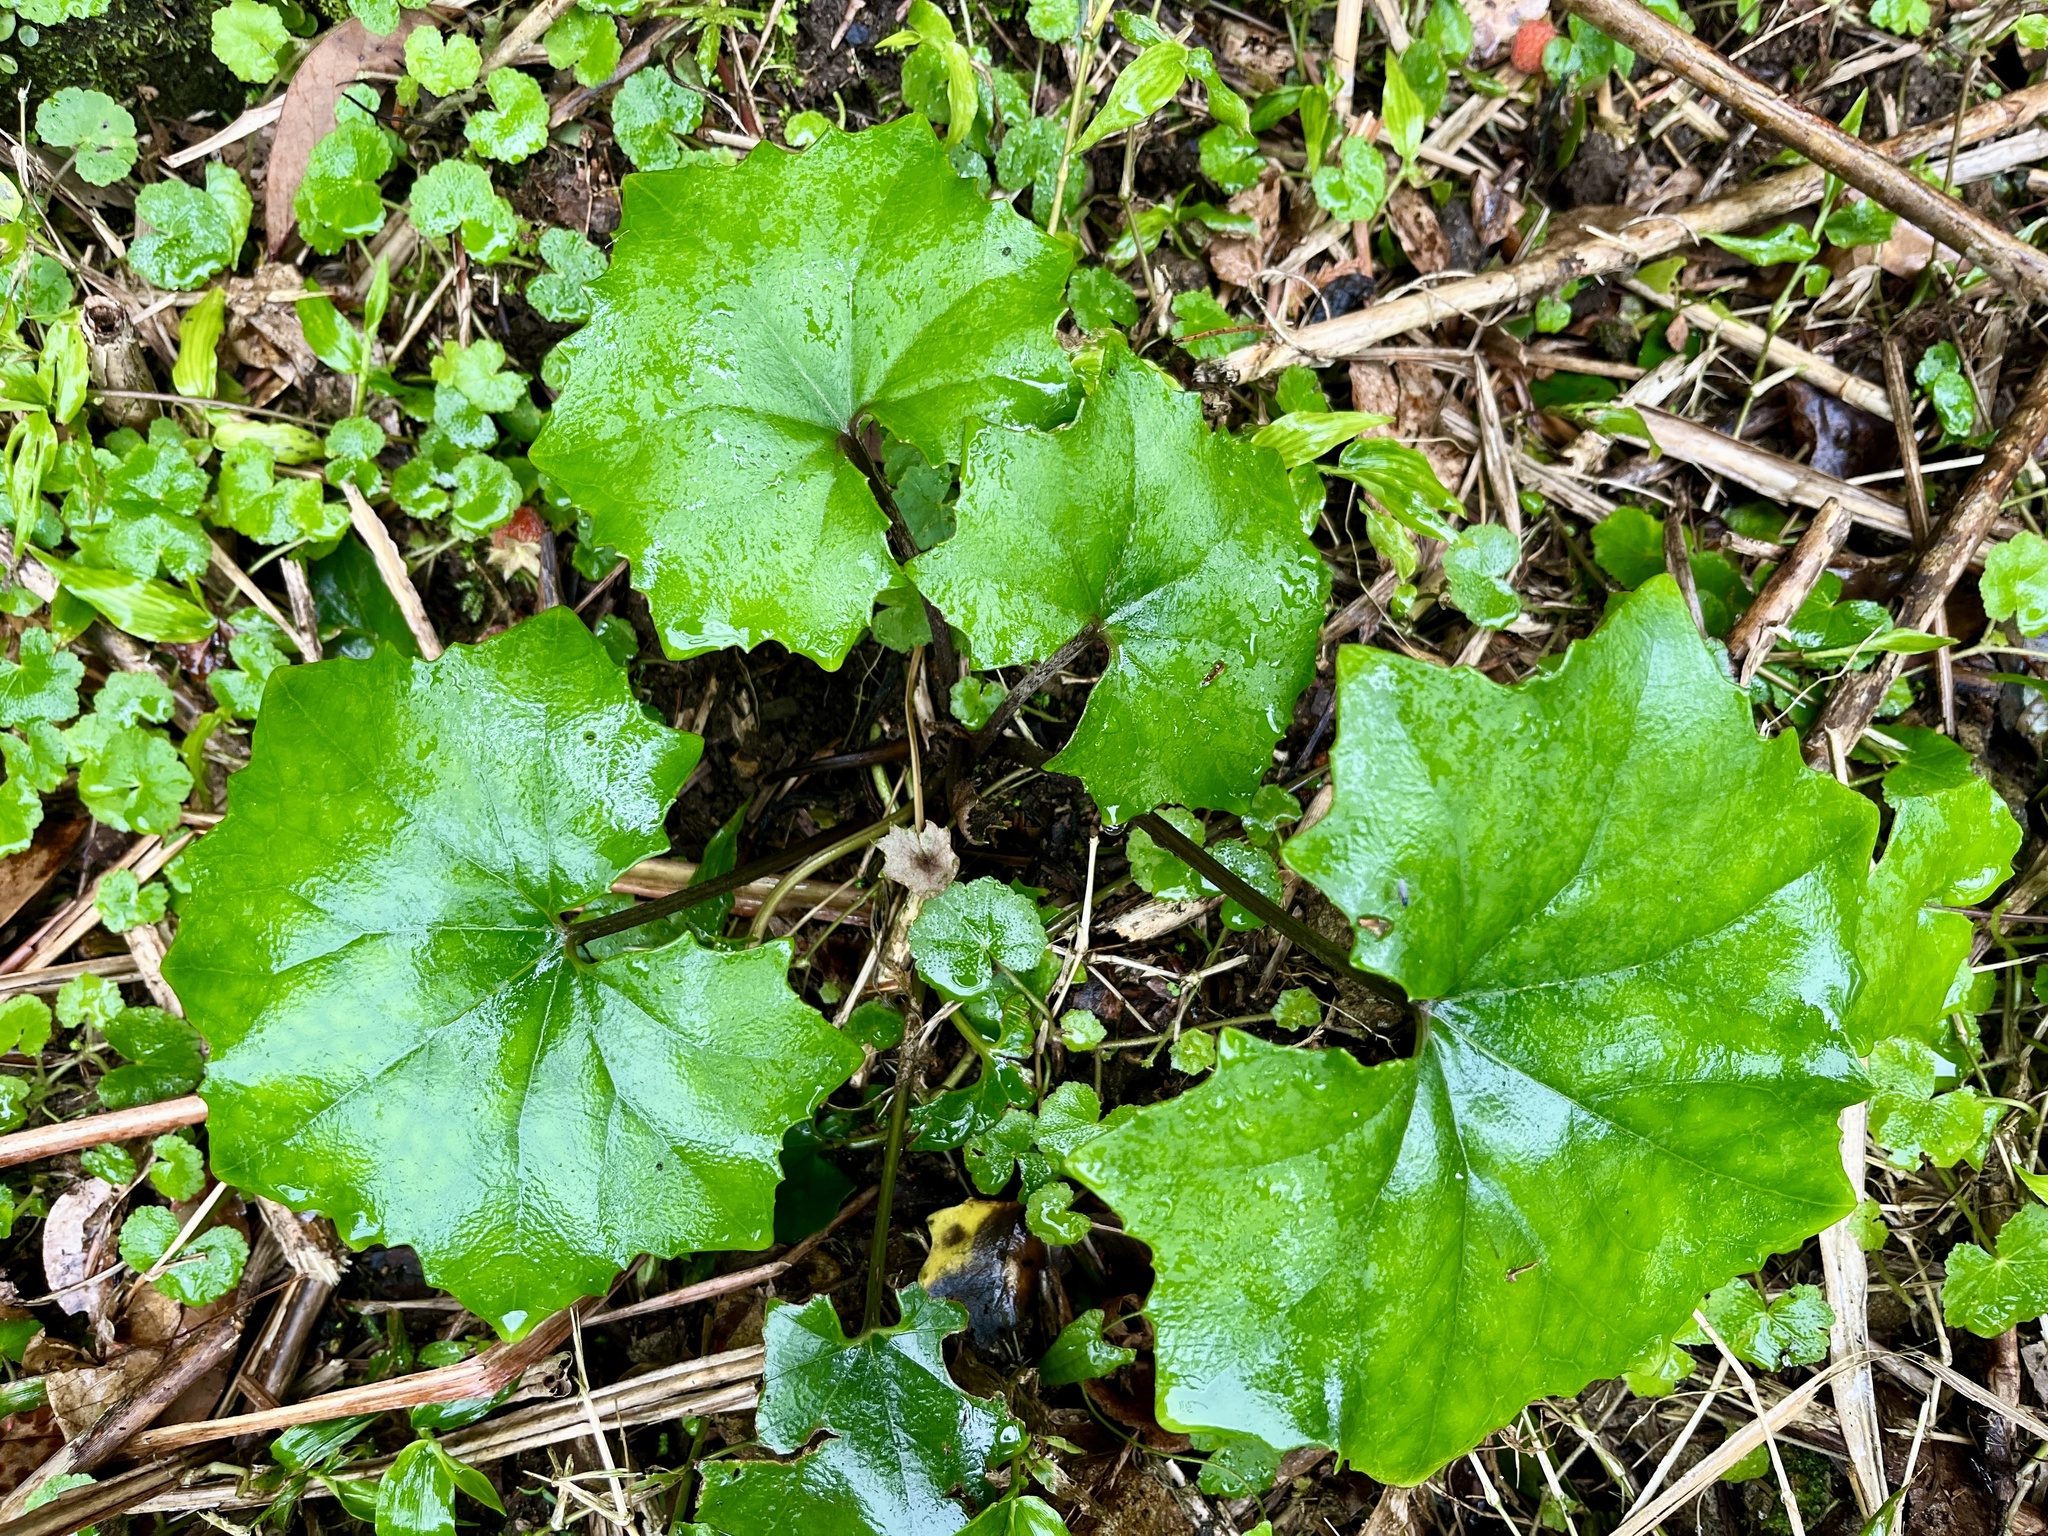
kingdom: Plantae
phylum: Tracheophyta
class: Magnoliopsida
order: Asterales
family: Asteraceae
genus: Farfugium
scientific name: Farfugium japonicum
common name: Leopardplant
